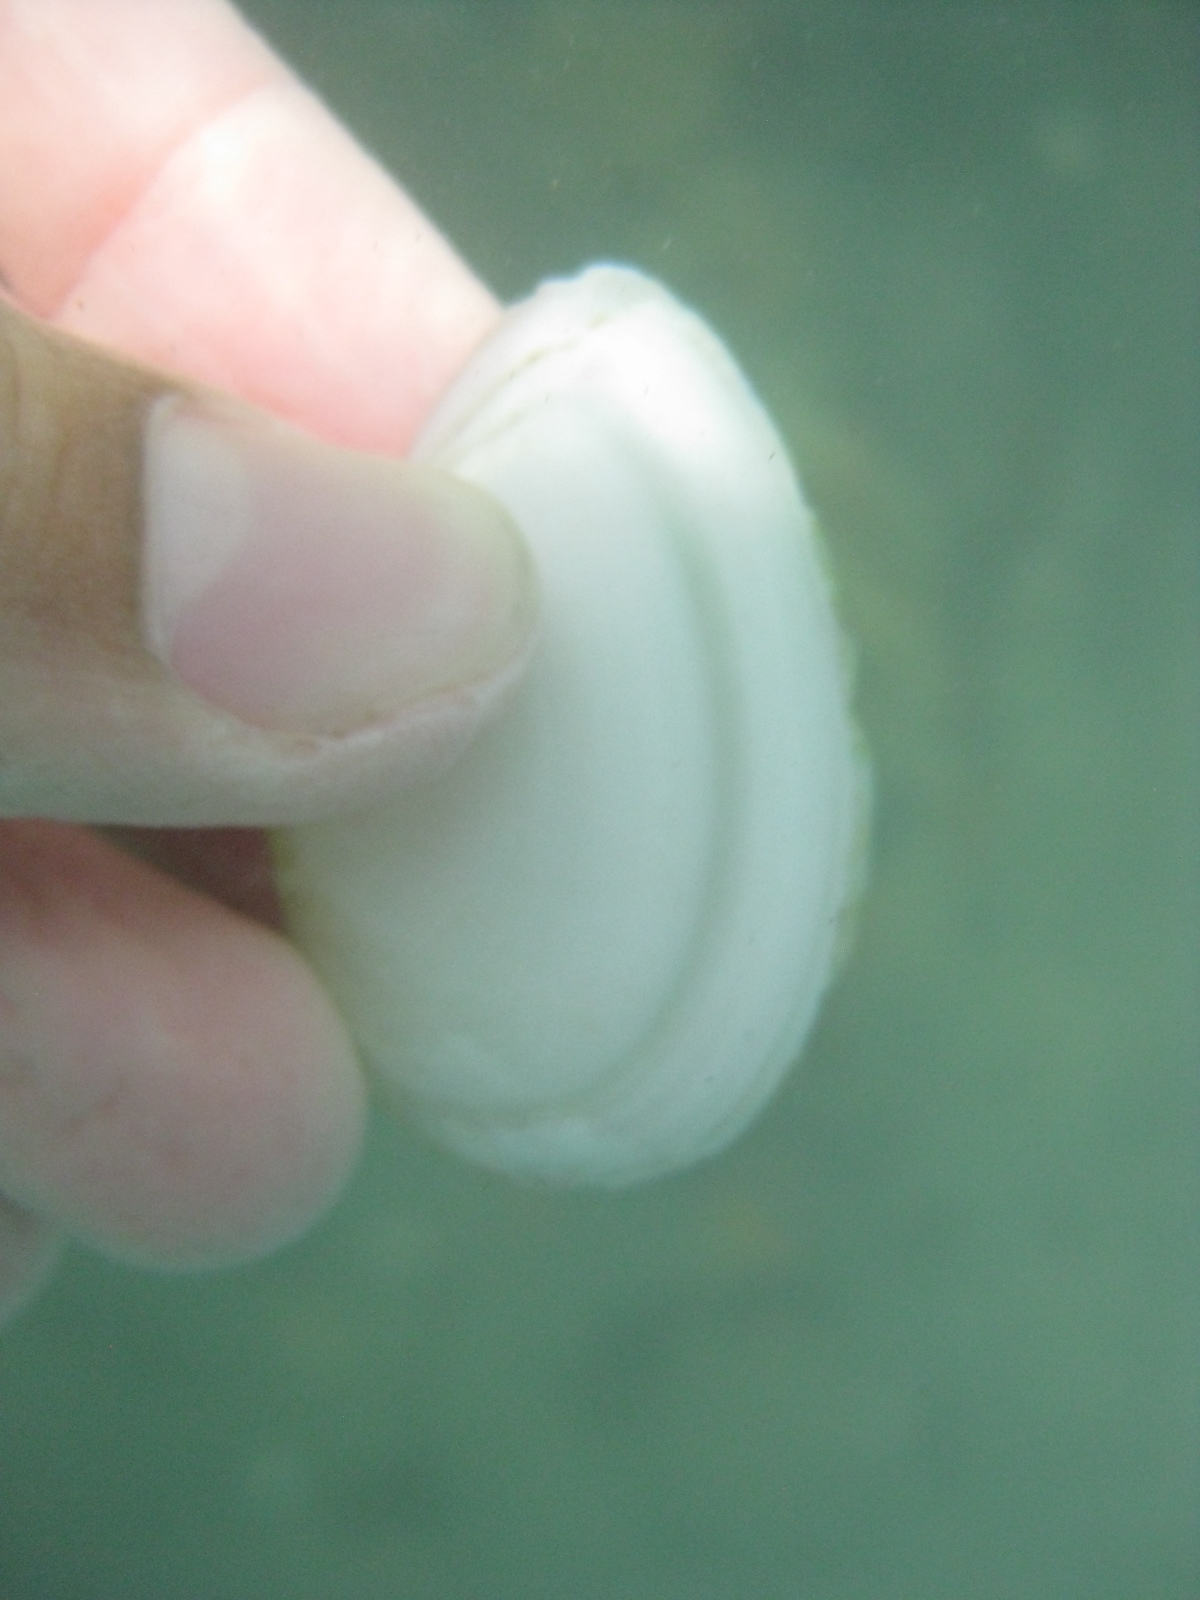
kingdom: Animalia
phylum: Mollusca
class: Bivalvia
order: Cardiida
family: Tellinidae
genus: Bartschicoma
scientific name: Bartschicoma gaimardi
